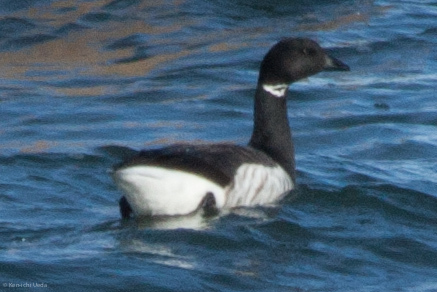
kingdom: Animalia
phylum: Chordata
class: Aves
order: Anseriformes
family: Anatidae
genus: Branta
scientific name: Branta bernicla
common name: Brant goose
